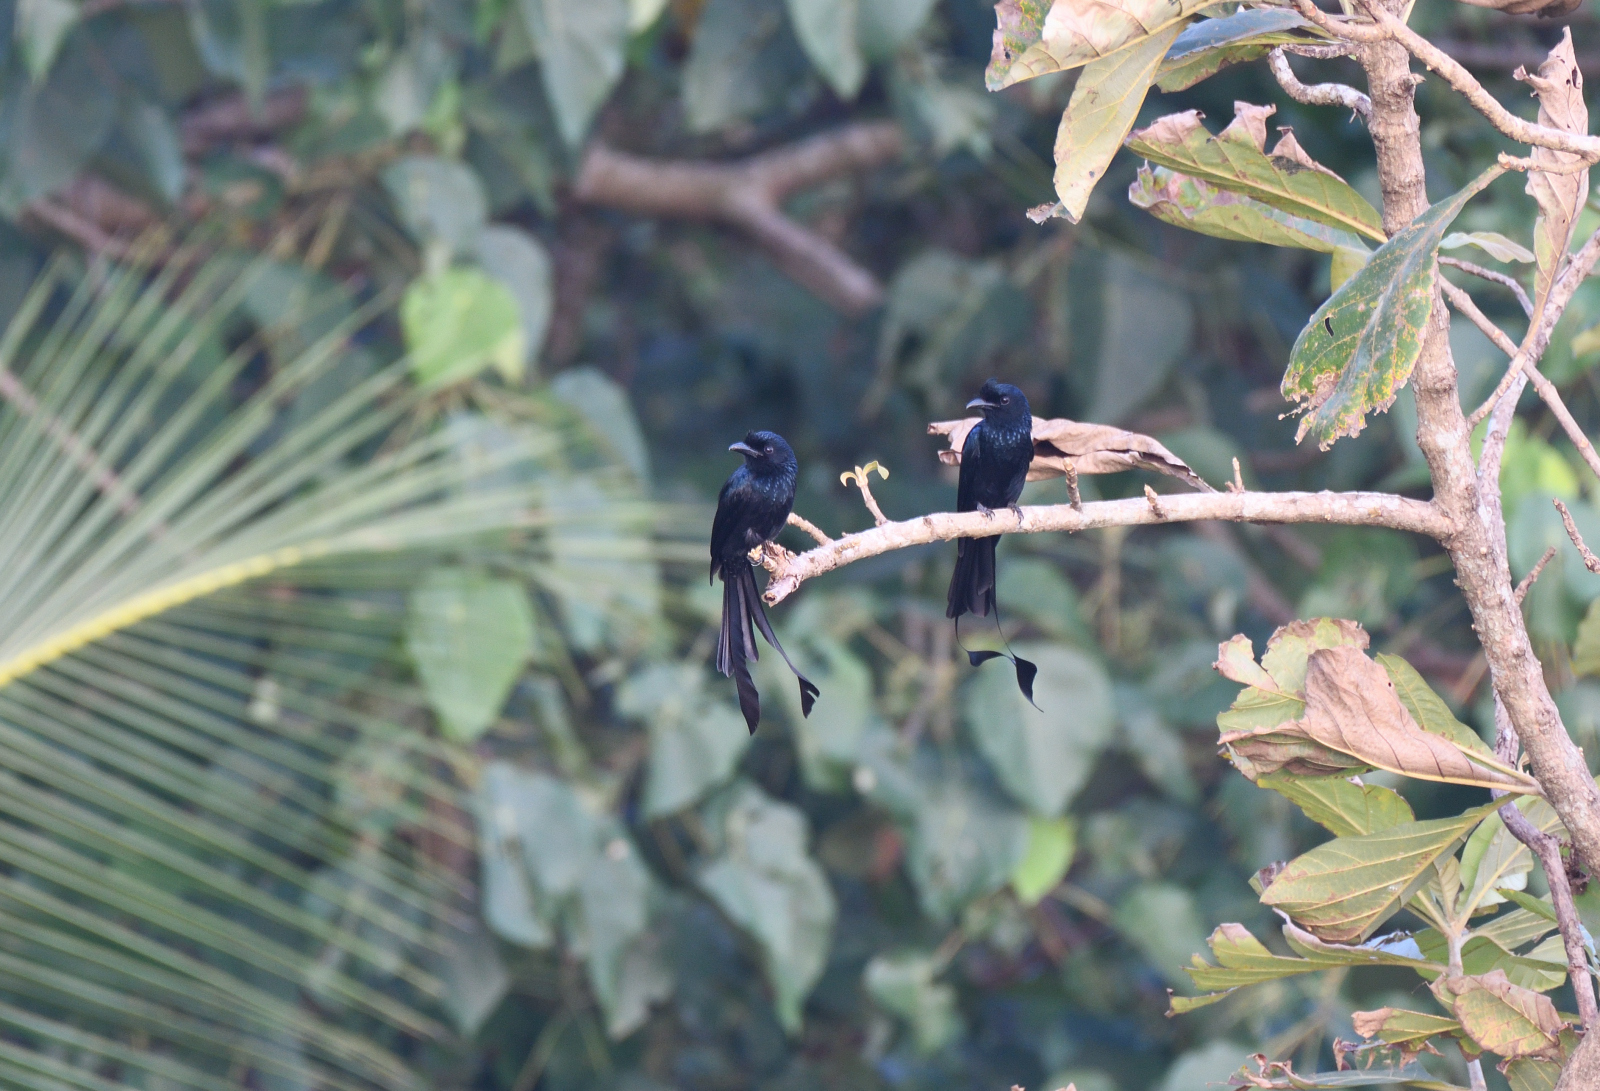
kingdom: Animalia
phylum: Chordata
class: Aves
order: Passeriformes
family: Dicruridae
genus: Dicrurus
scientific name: Dicrurus paradiseus
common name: Greater racket-tailed drongo
